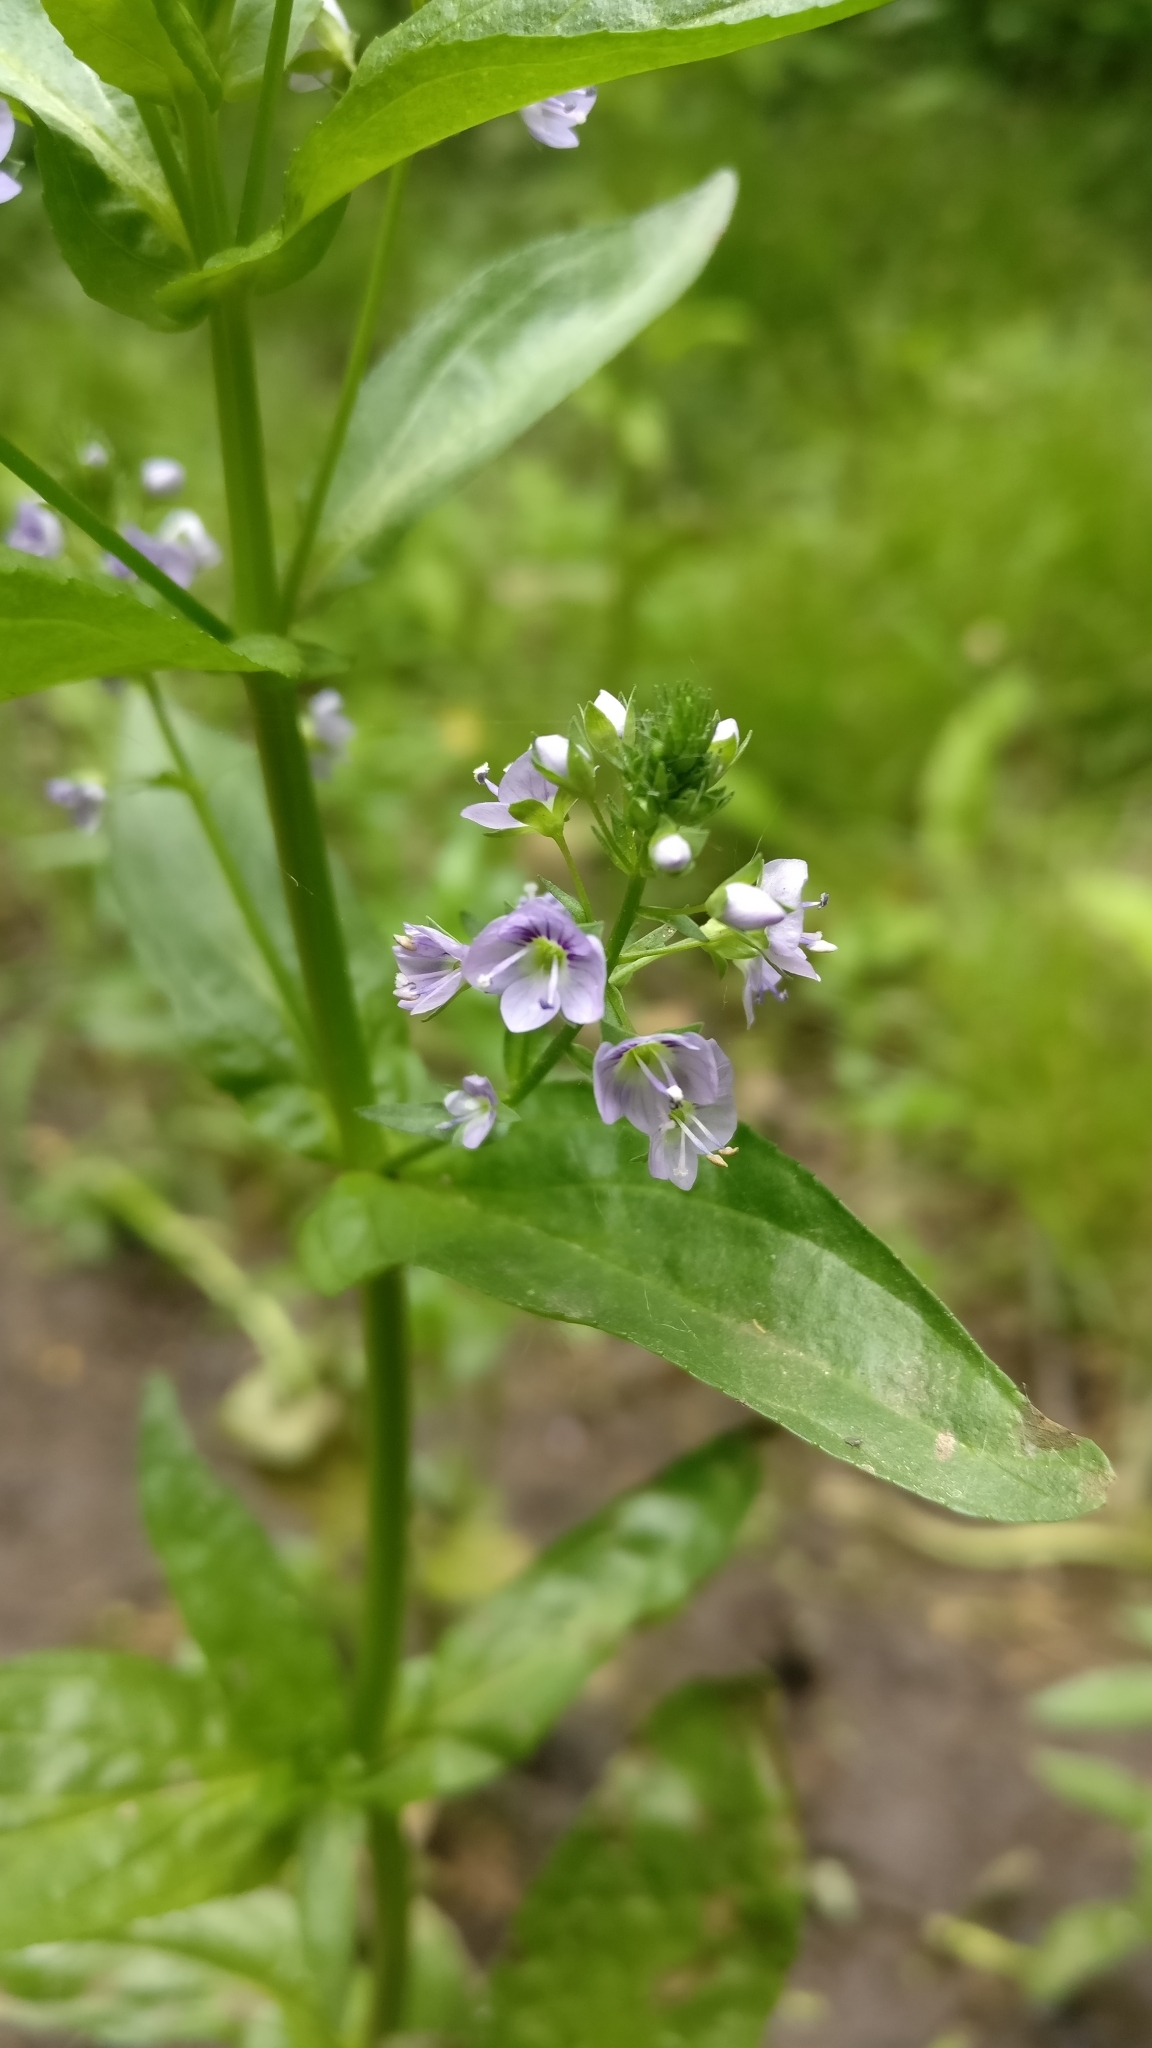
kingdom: Plantae
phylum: Tracheophyta
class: Magnoliopsida
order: Lamiales
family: Plantaginaceae
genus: Veronica
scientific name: Veronica anagallis-aquatica
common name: Water speedwell
